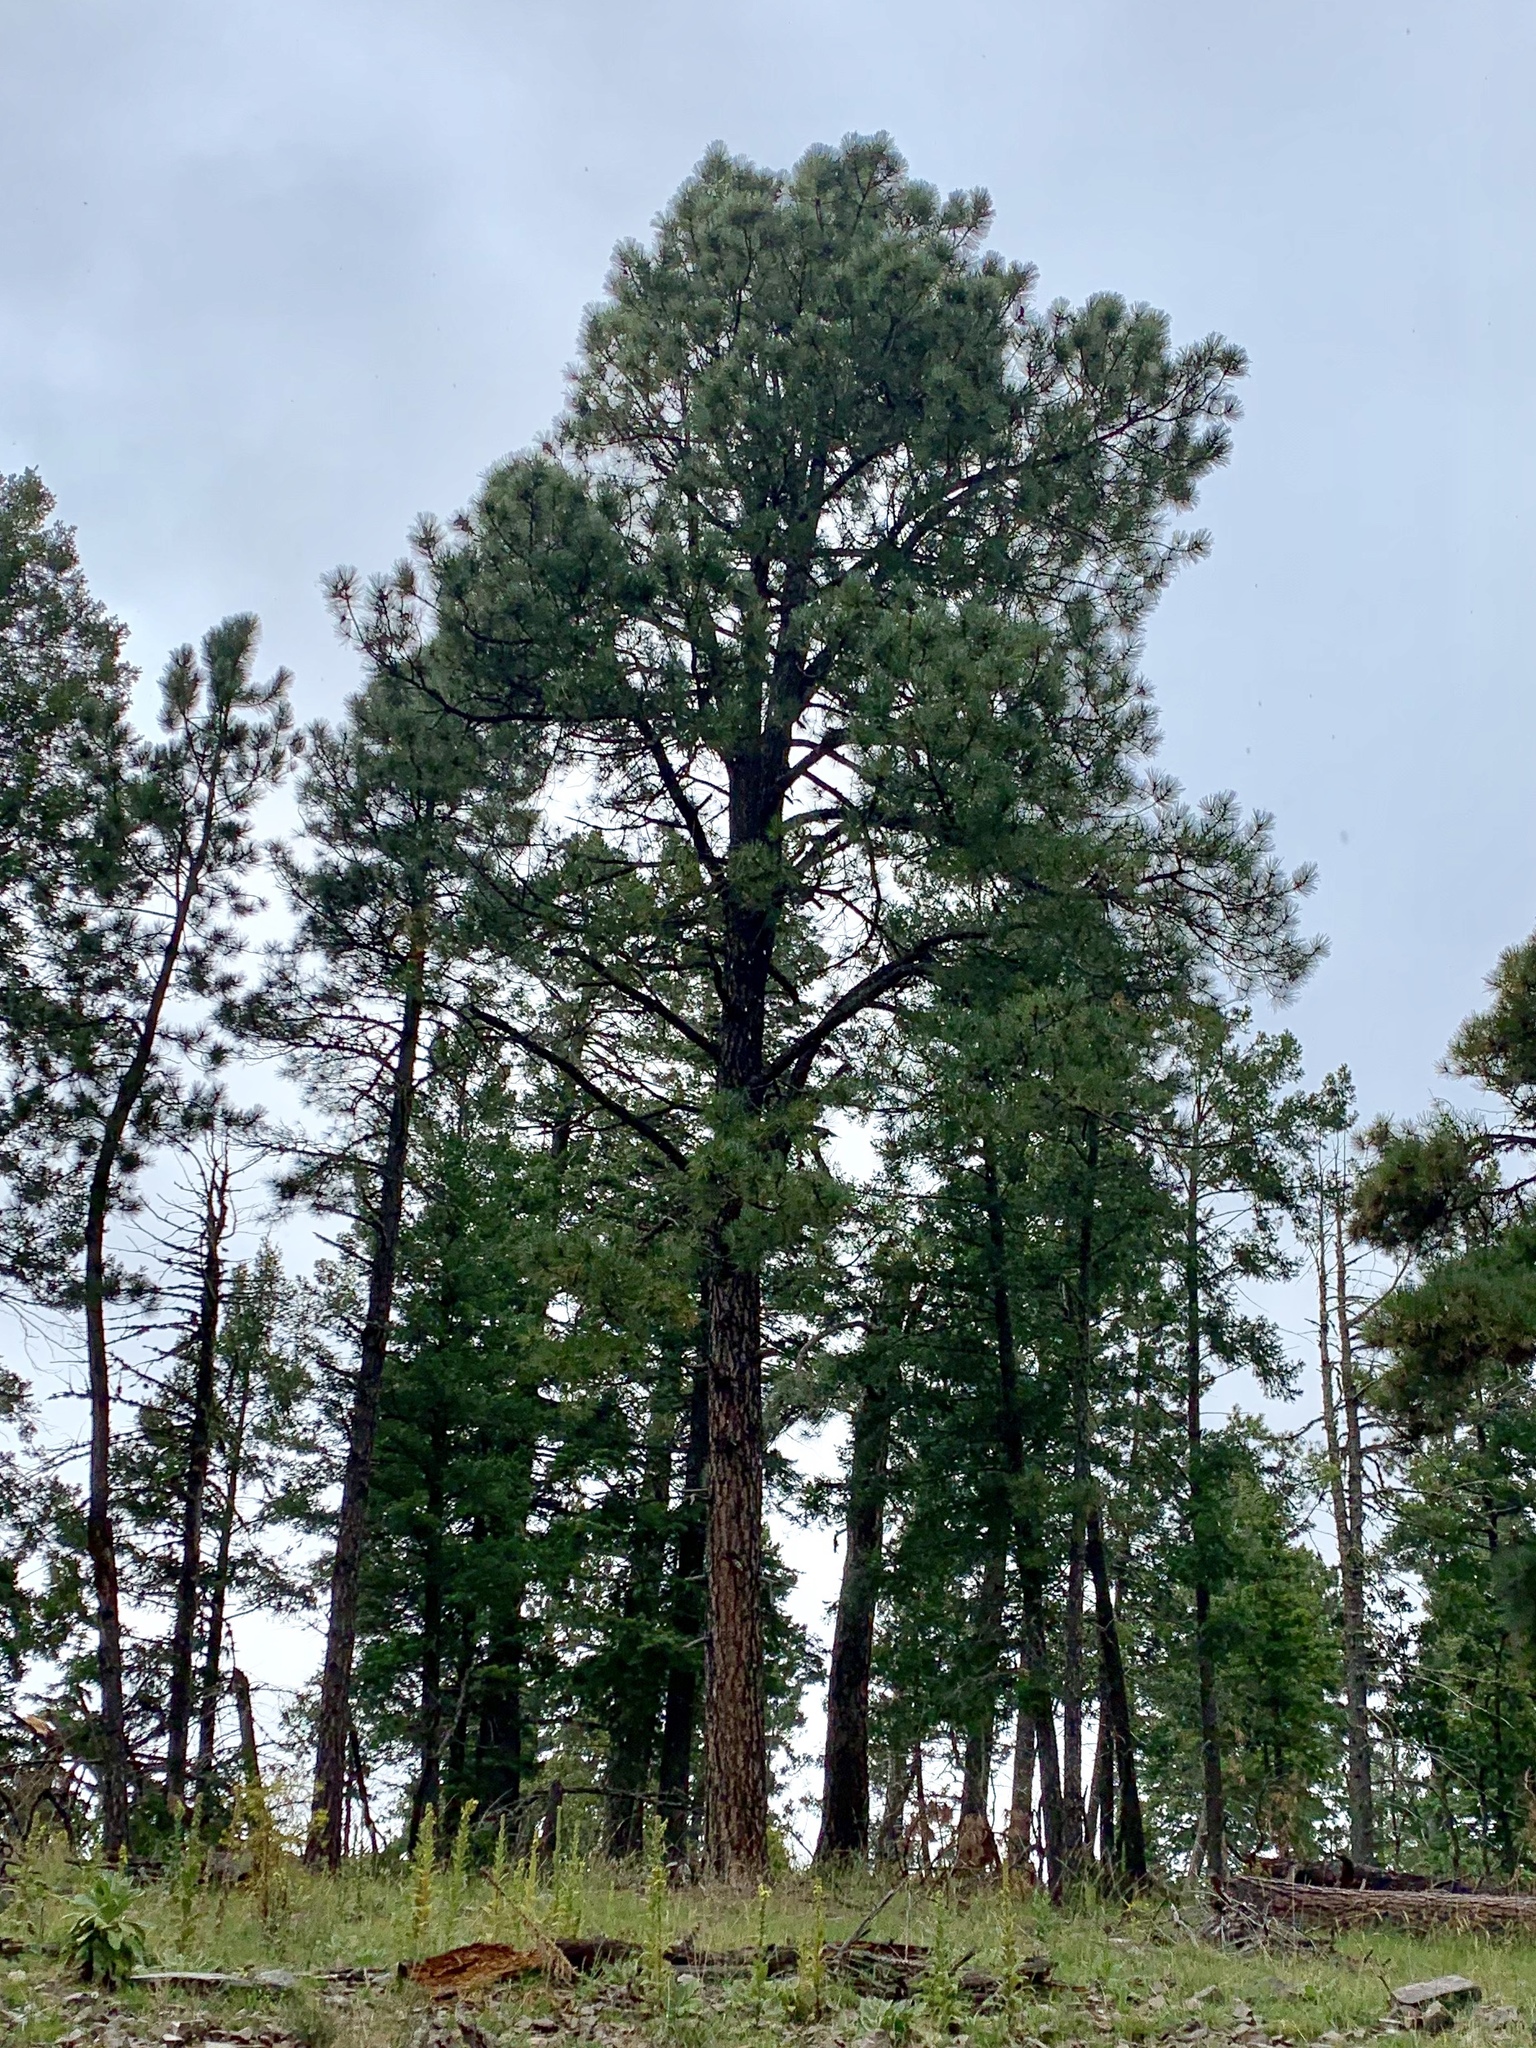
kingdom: Plantae
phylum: Tracheophyta
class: Pinopsida
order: Pinales
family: Pinaceae
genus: Pinus
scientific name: Pinus ponderosa
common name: Western yellow-pine
